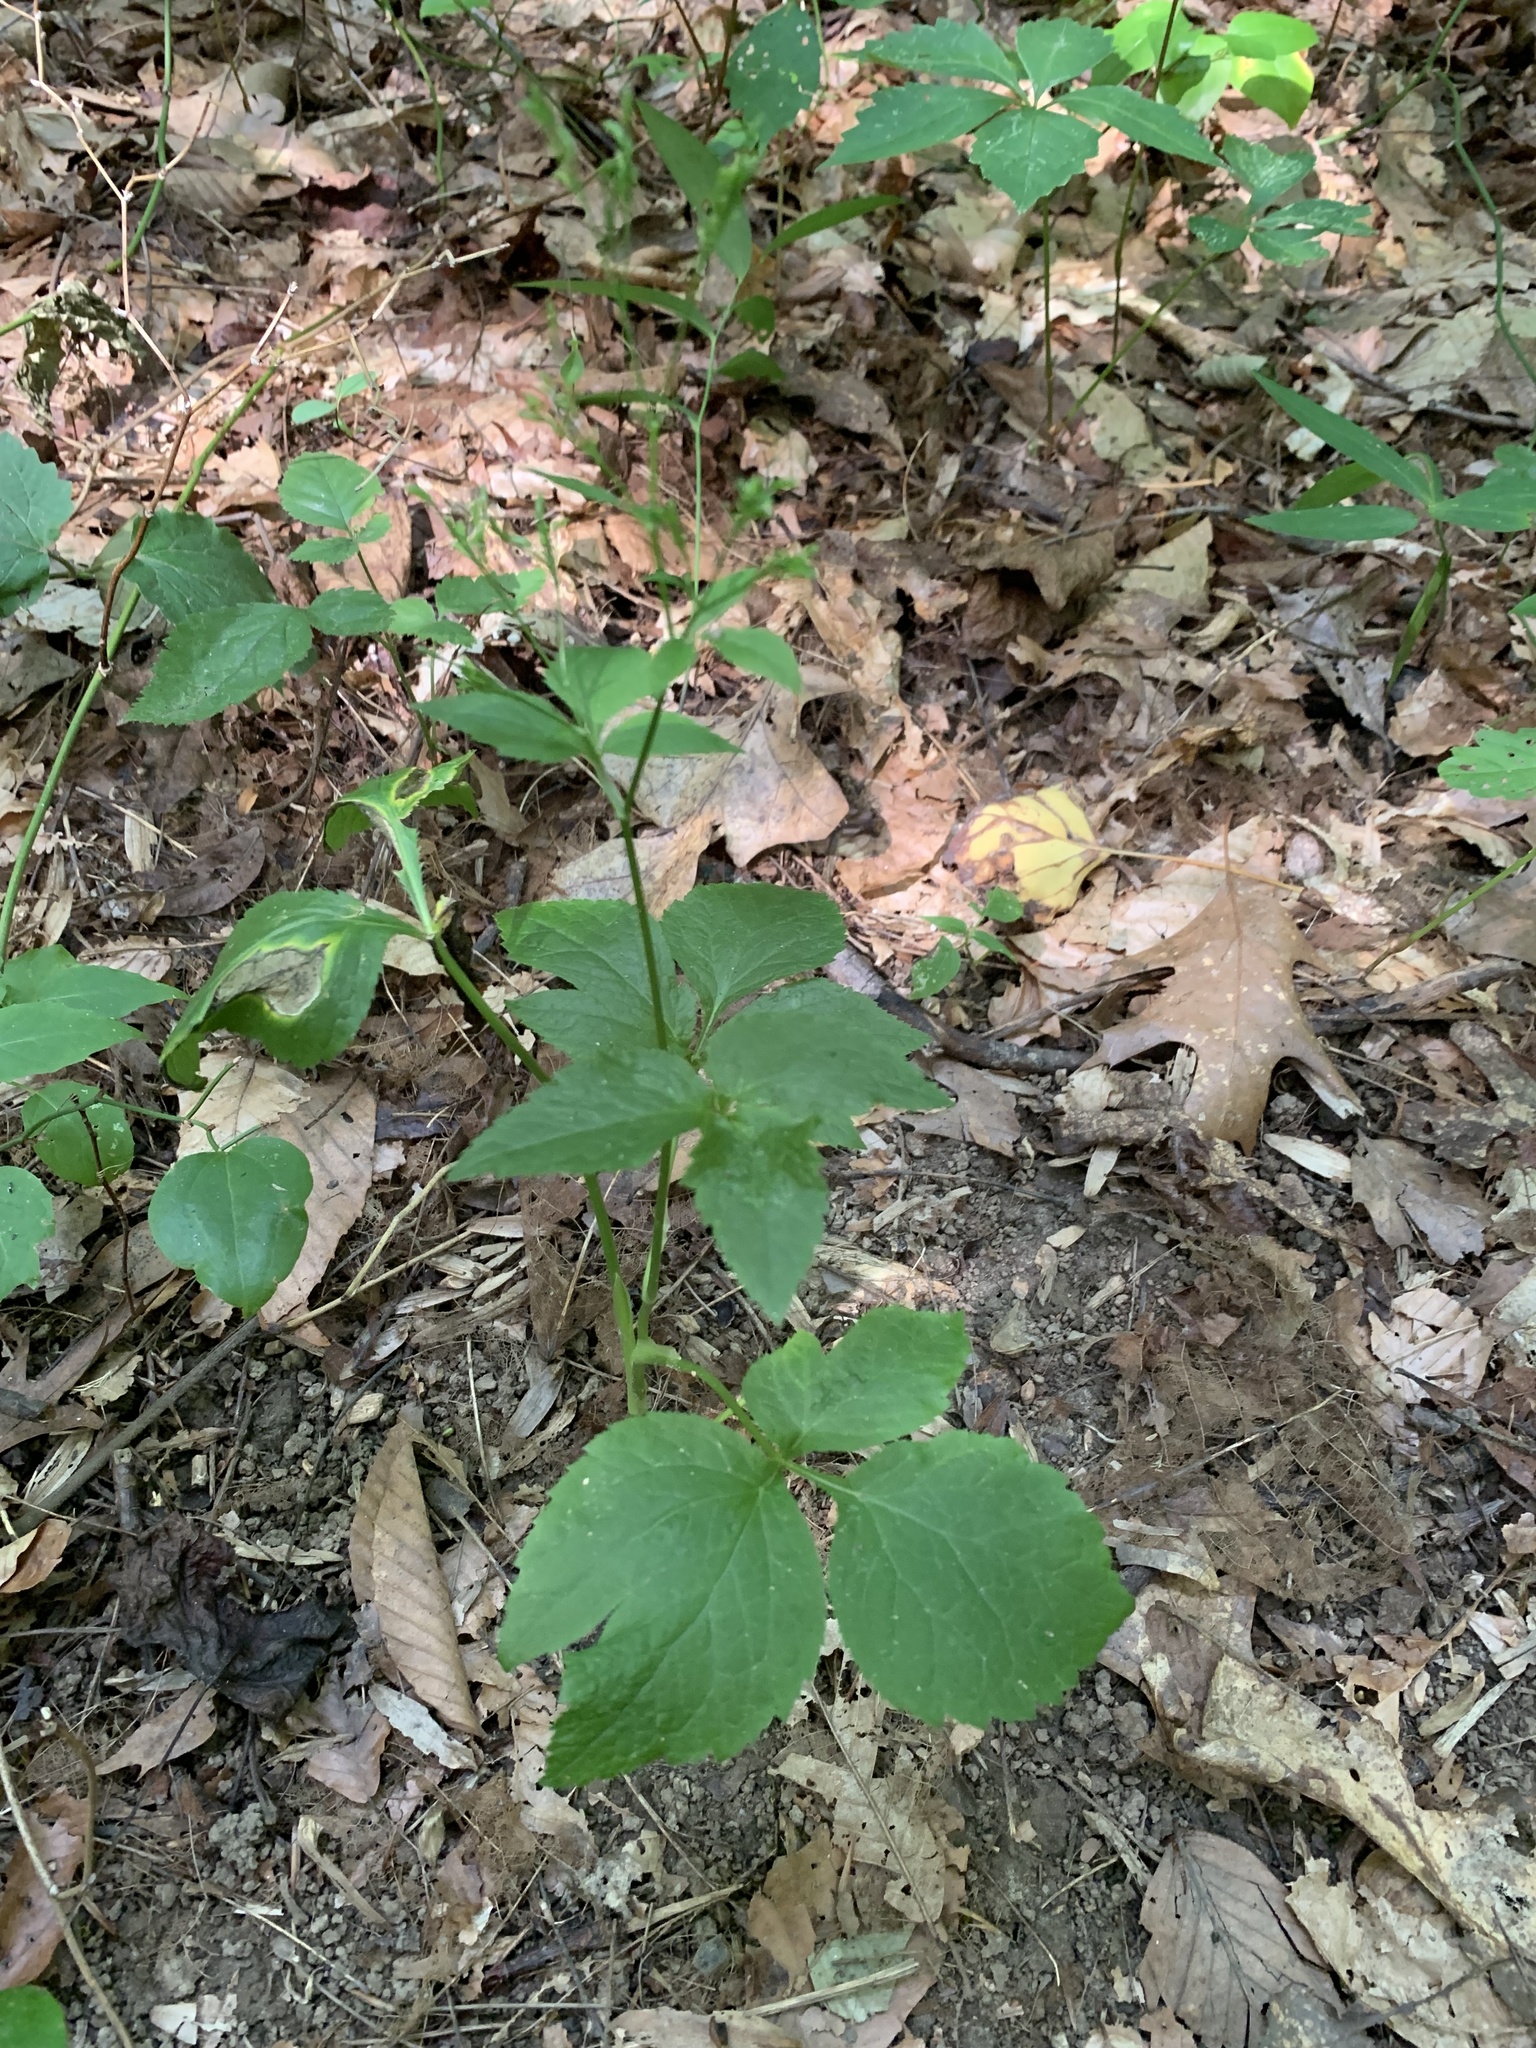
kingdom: Plantae
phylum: Tracheophyta
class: Magnoliopsida
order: Apiales
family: Apiaceae
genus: Cryptotaenia
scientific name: Cryptotaenia canadensis
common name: Honewort
